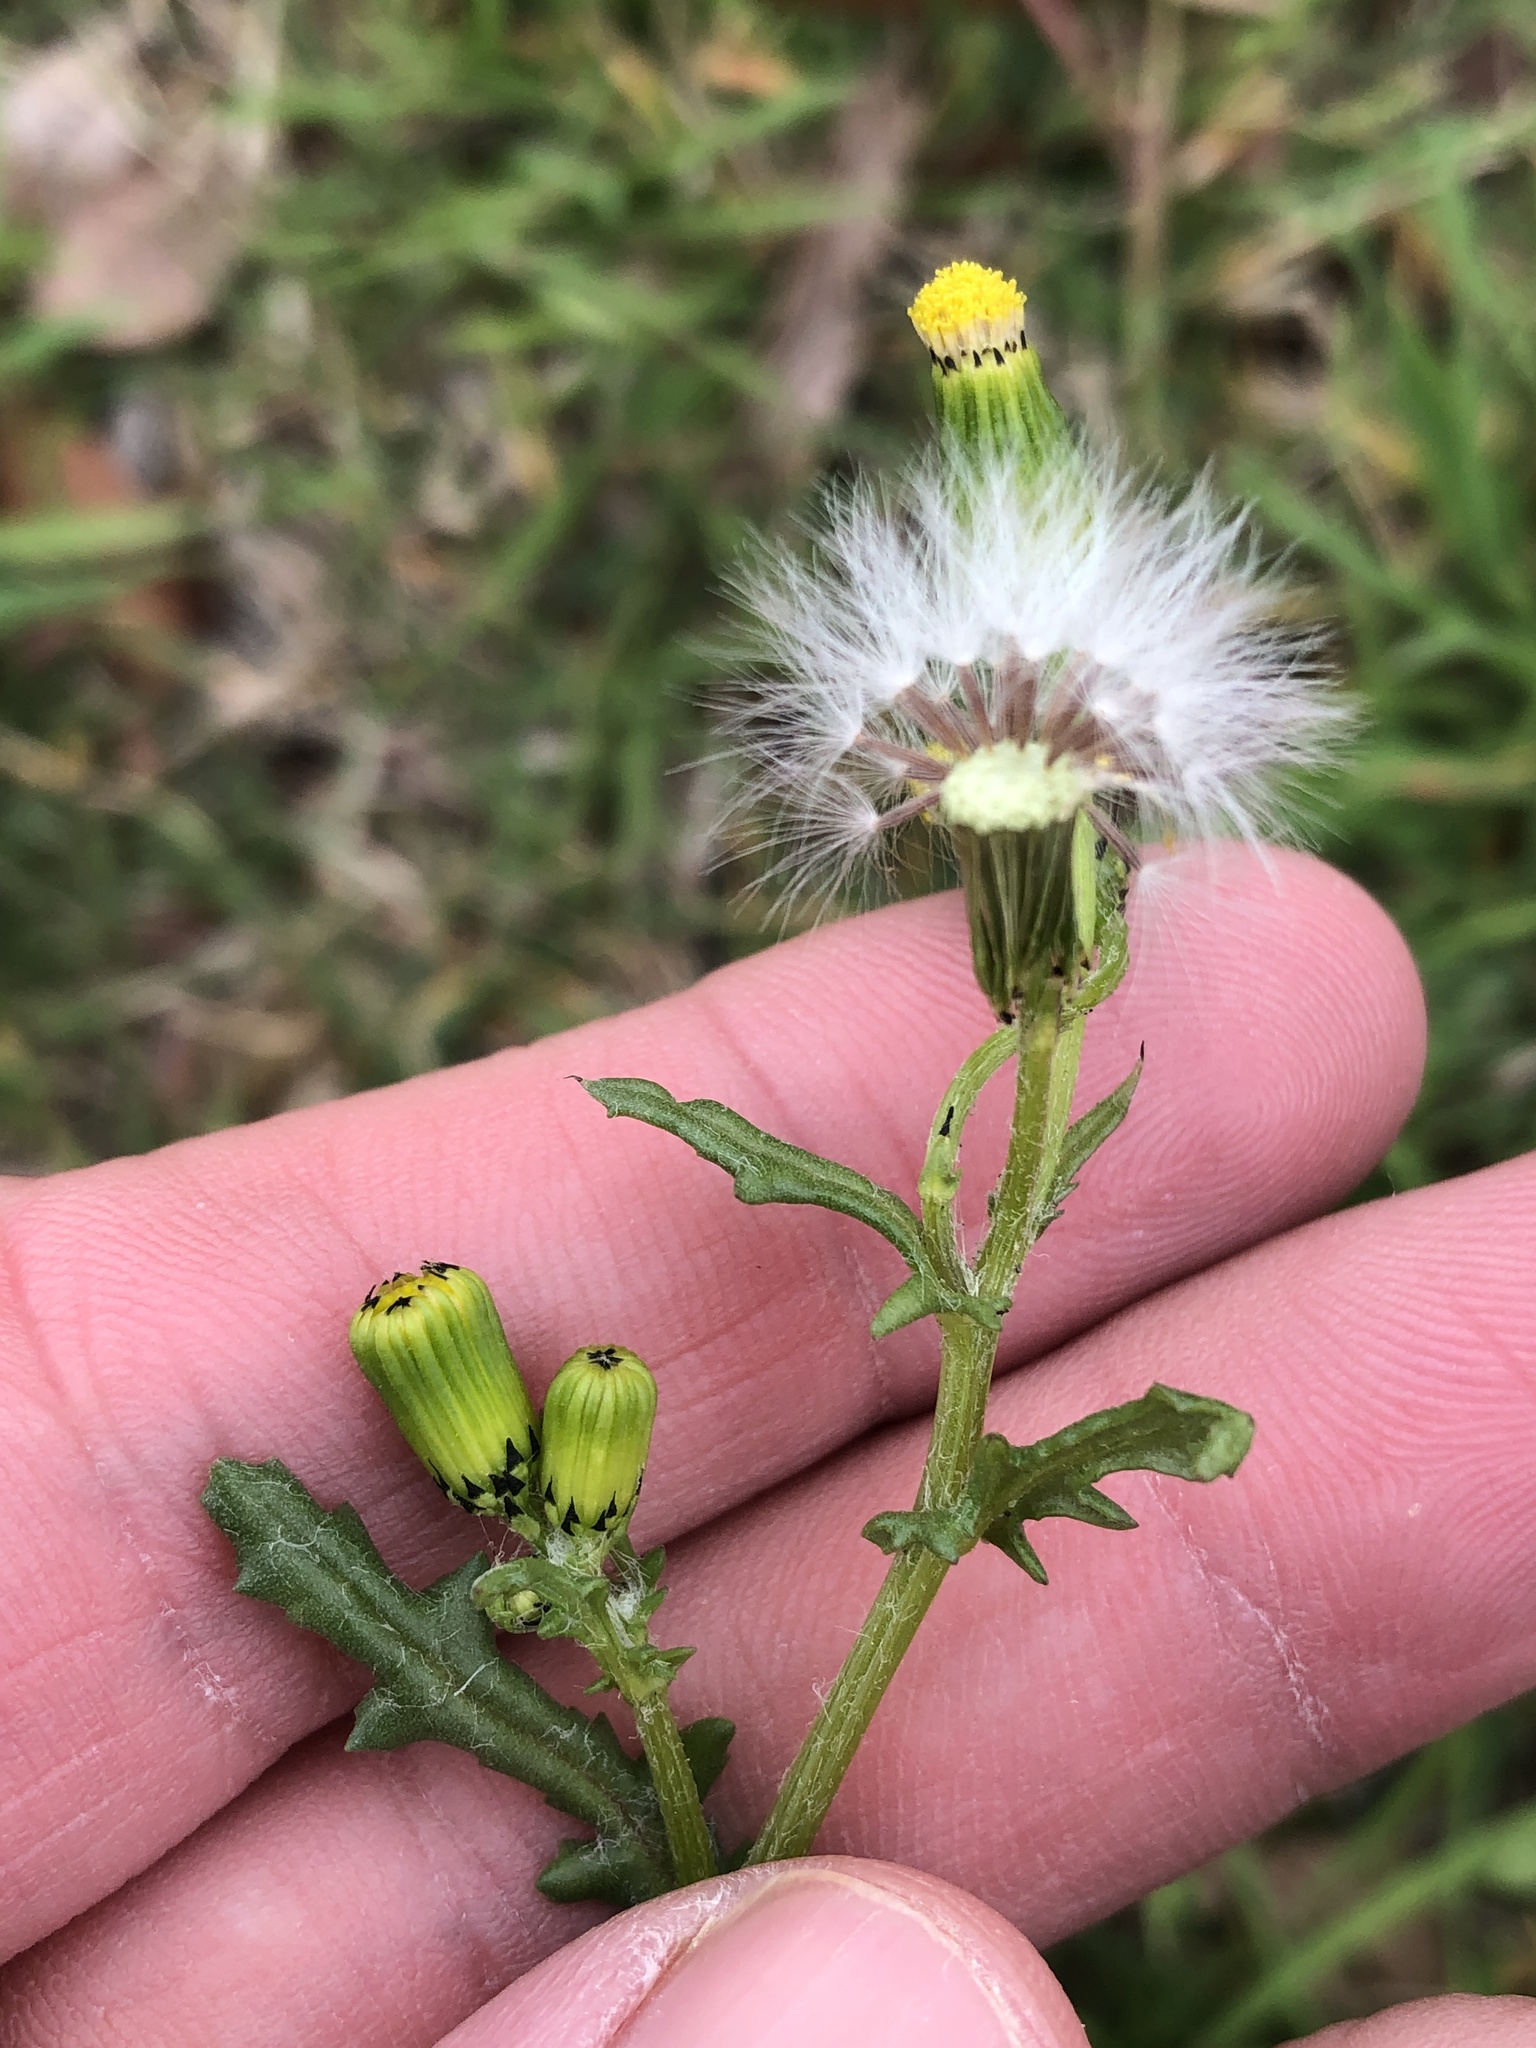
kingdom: Plantae
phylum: Tracheophyta
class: Magnoliopsida
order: Asterales
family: Asteraceae
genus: Senecio
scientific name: Senecio vulgaris
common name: Old-man-in-the-spring
